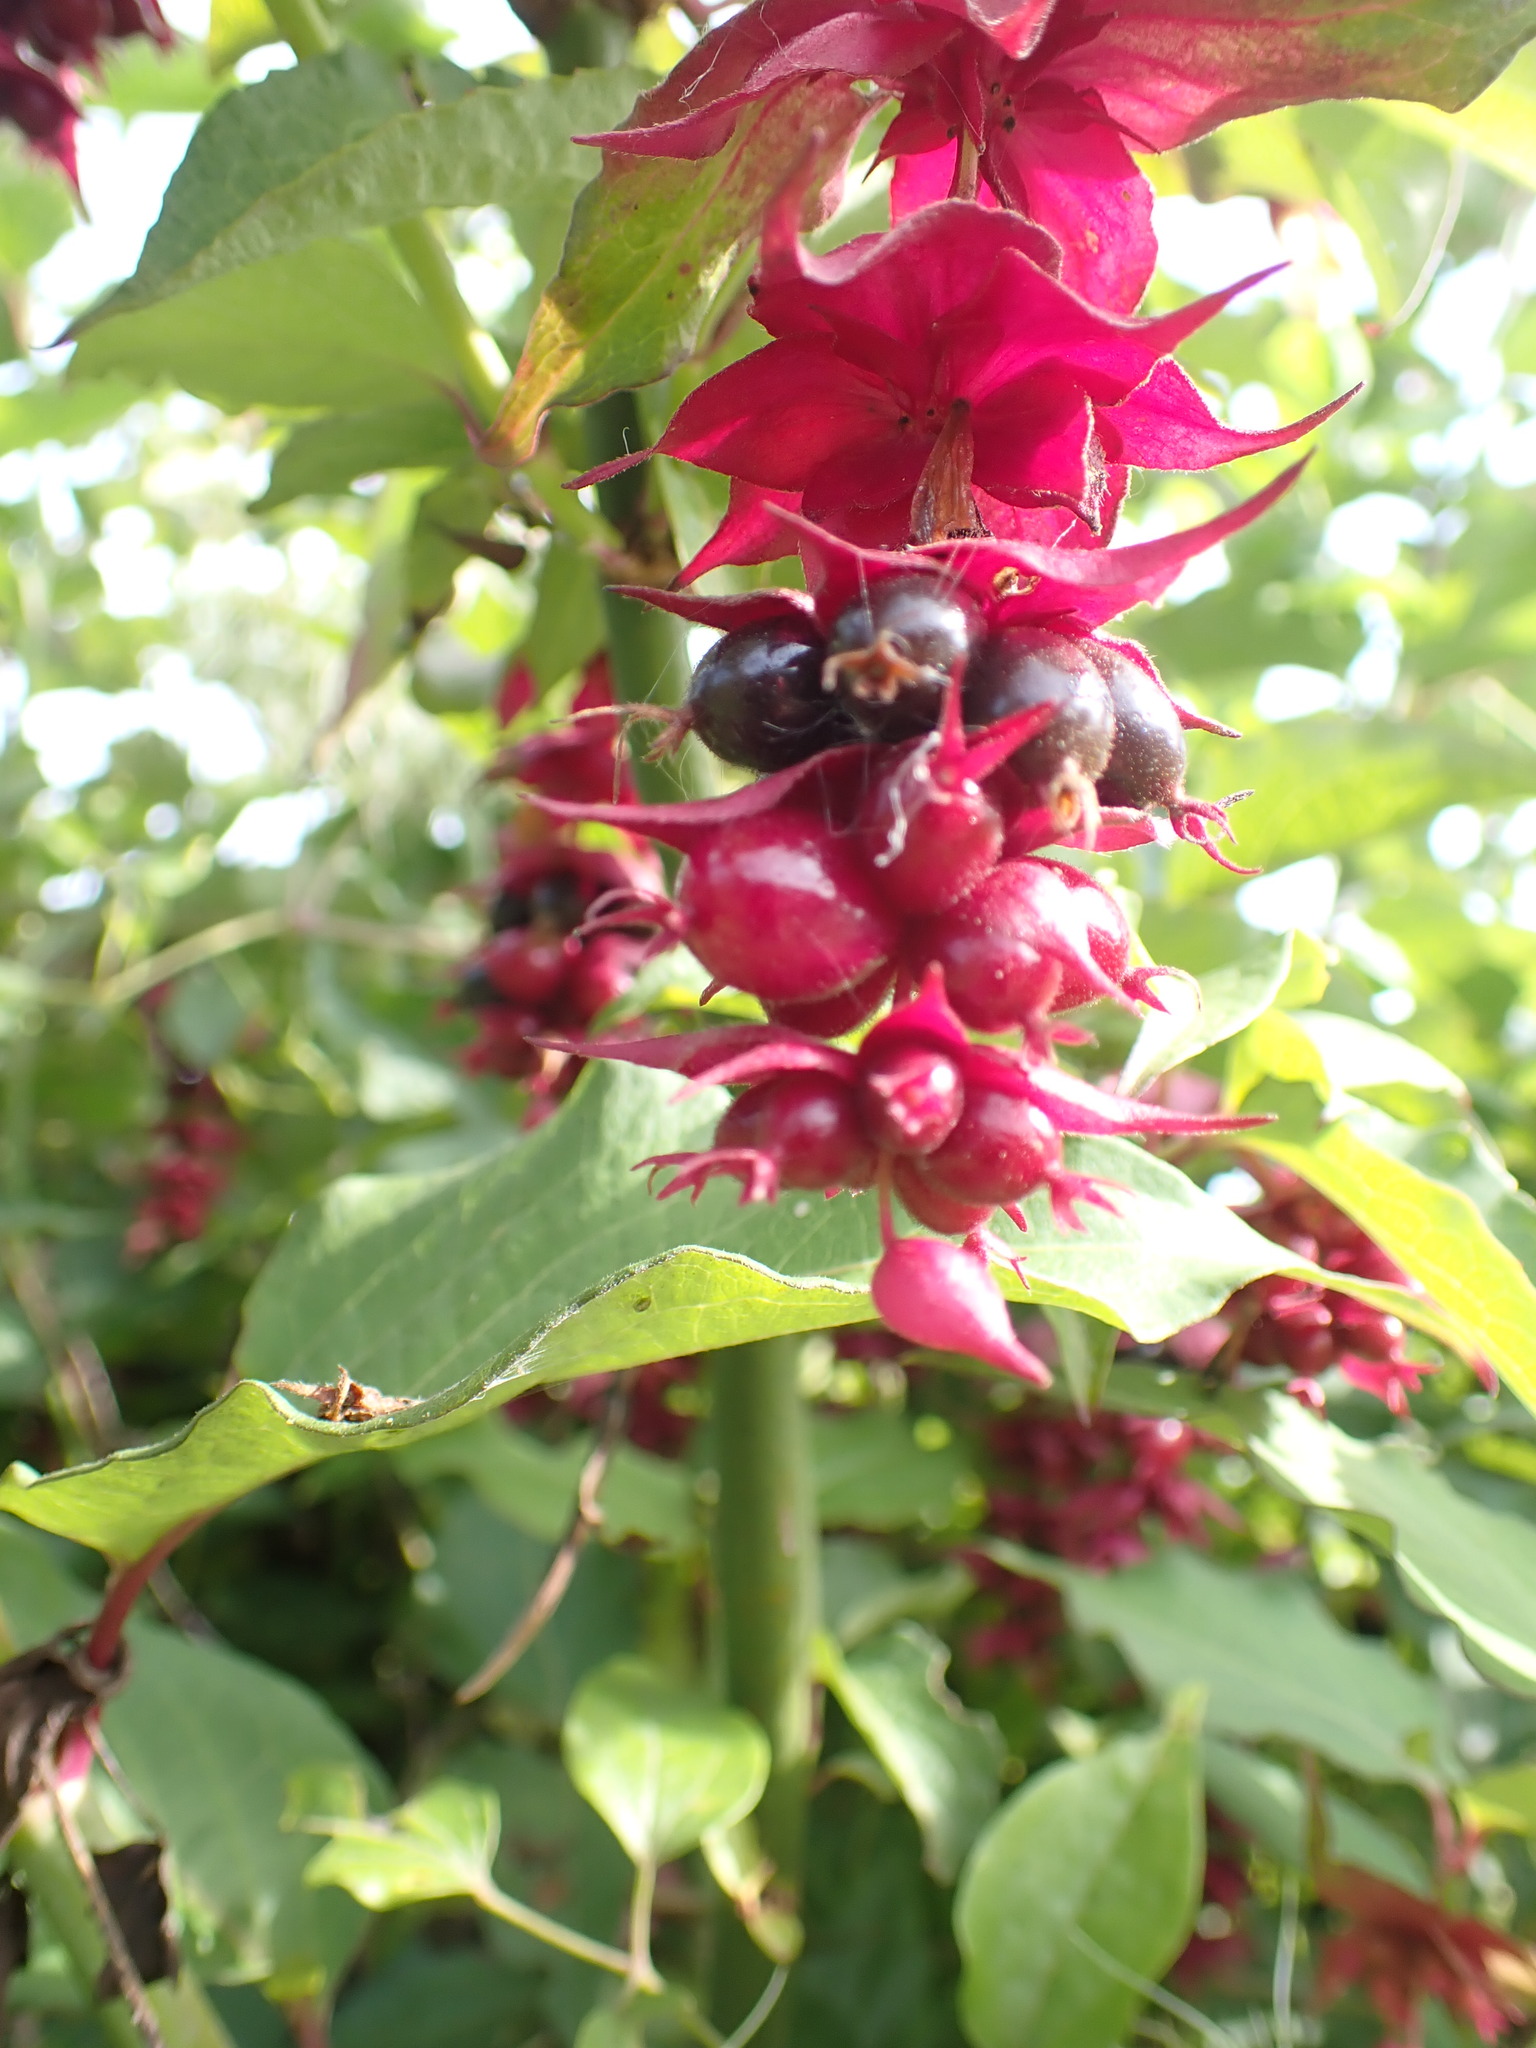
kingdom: Plantae
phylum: Tracheophyta
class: Magnoliopsida
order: Dipsacales
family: Caprifoliaceae
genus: Leycesteria
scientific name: Leycesteria formosa
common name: Himalayan honeysuckle
